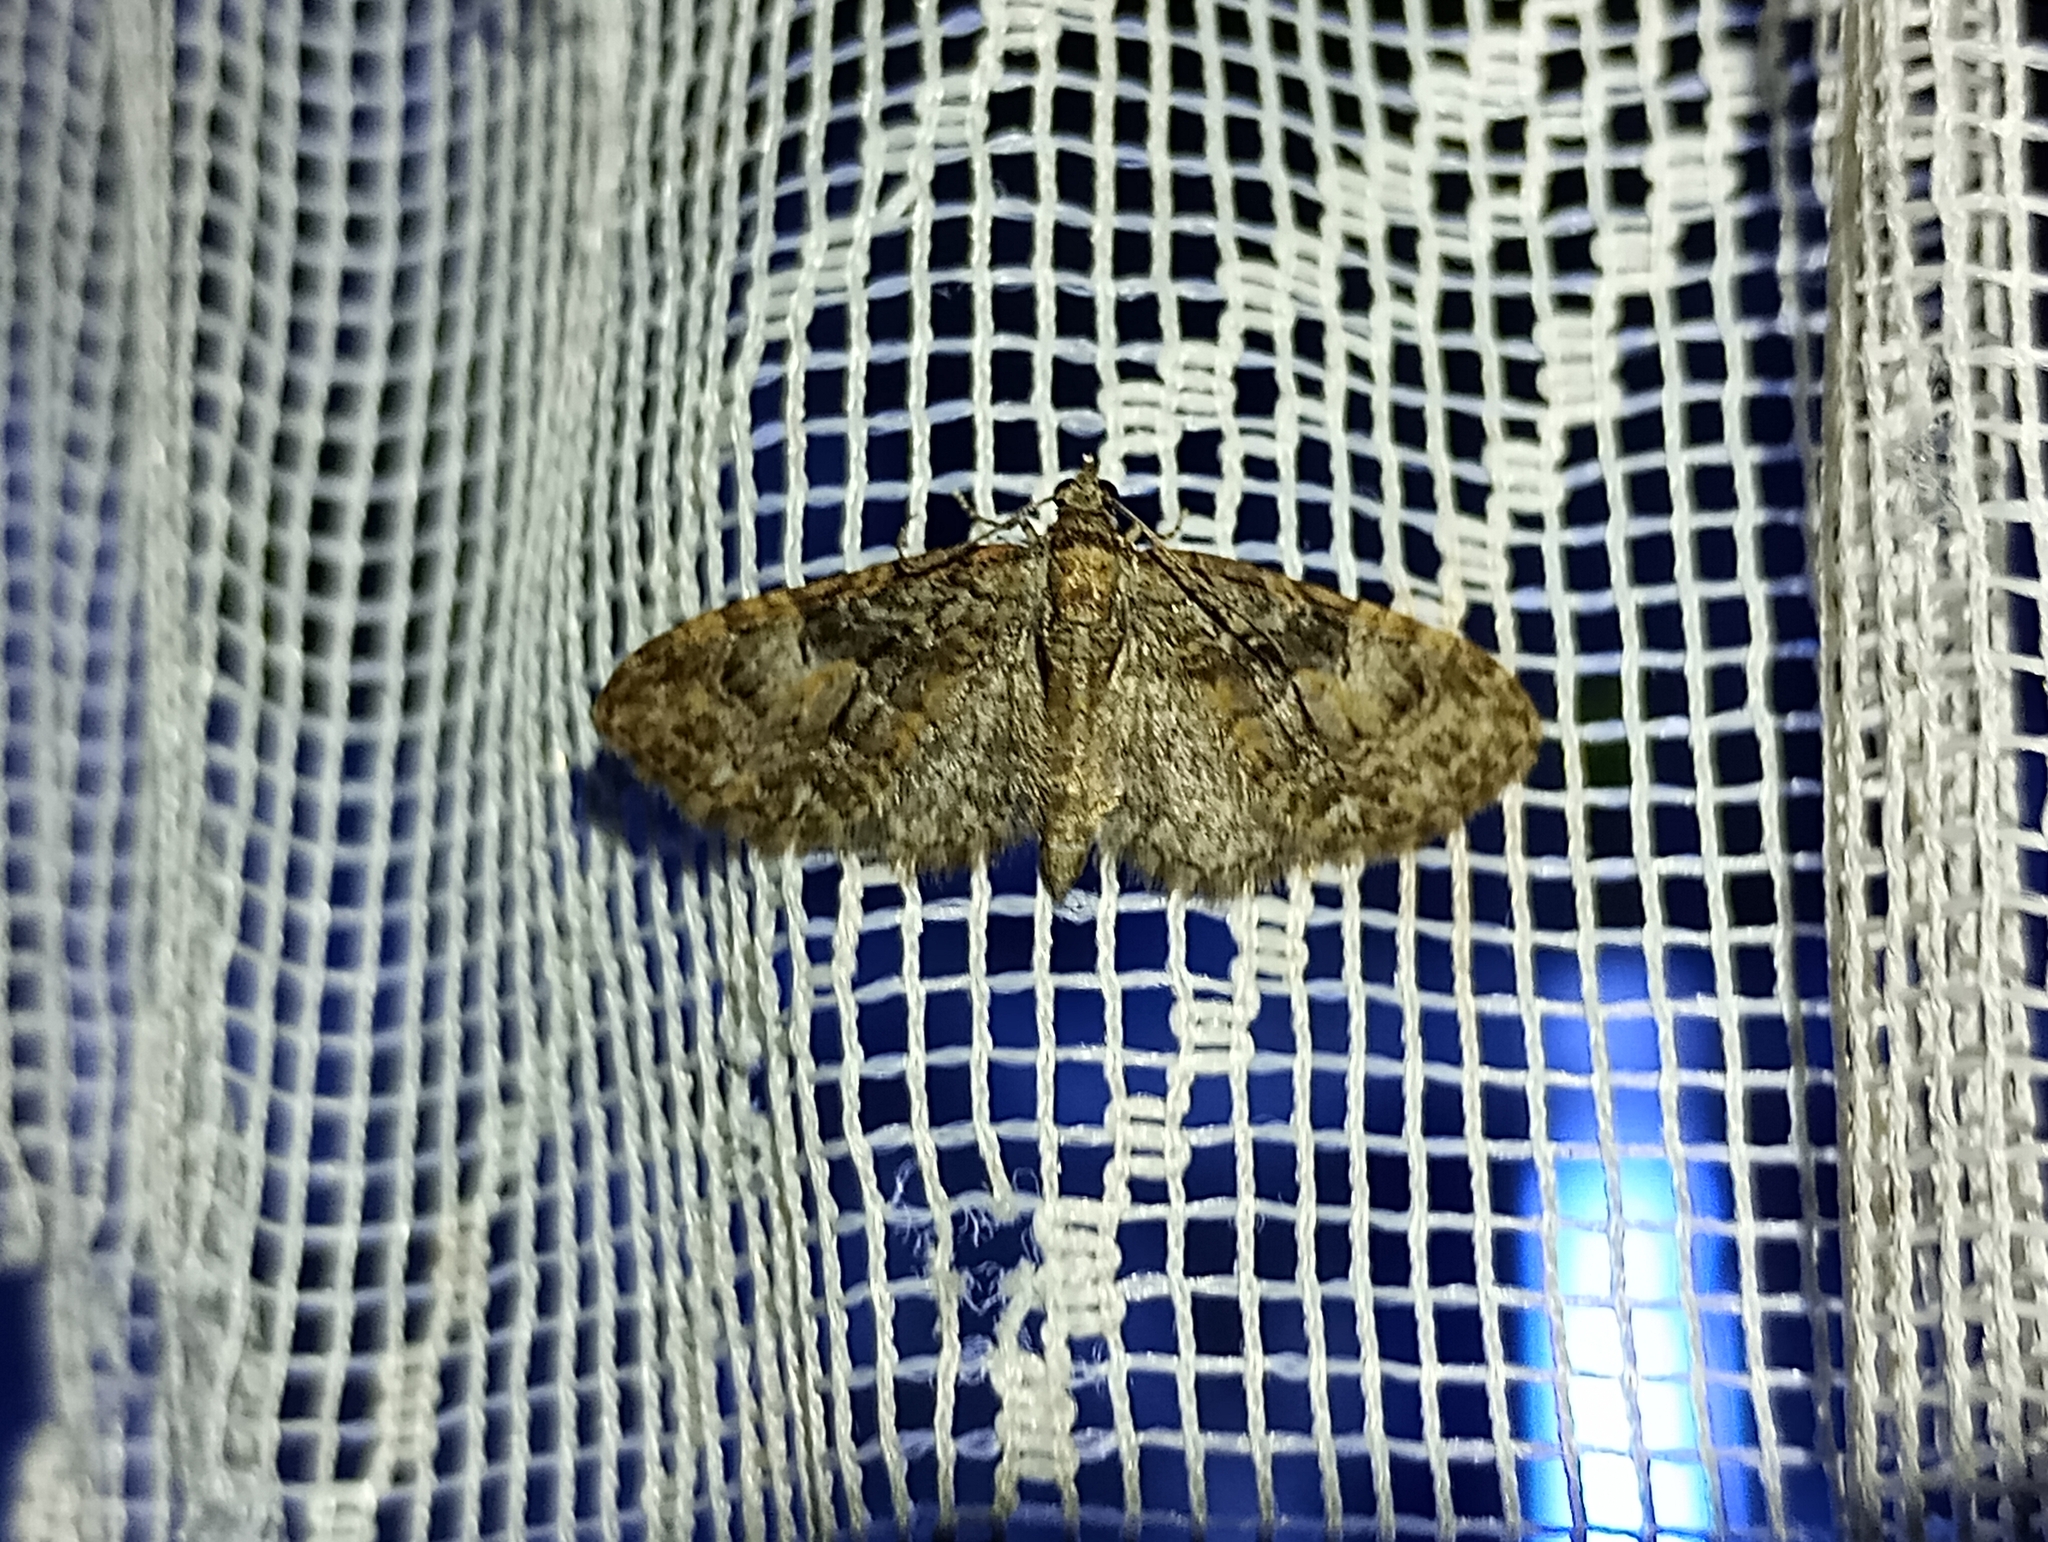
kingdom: Animalia
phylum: Arthropoda
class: Insecta
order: Lepidoptera
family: Geometridae
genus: Eupithecia
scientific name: Eupithecia abbreviata
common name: Brindled pug
